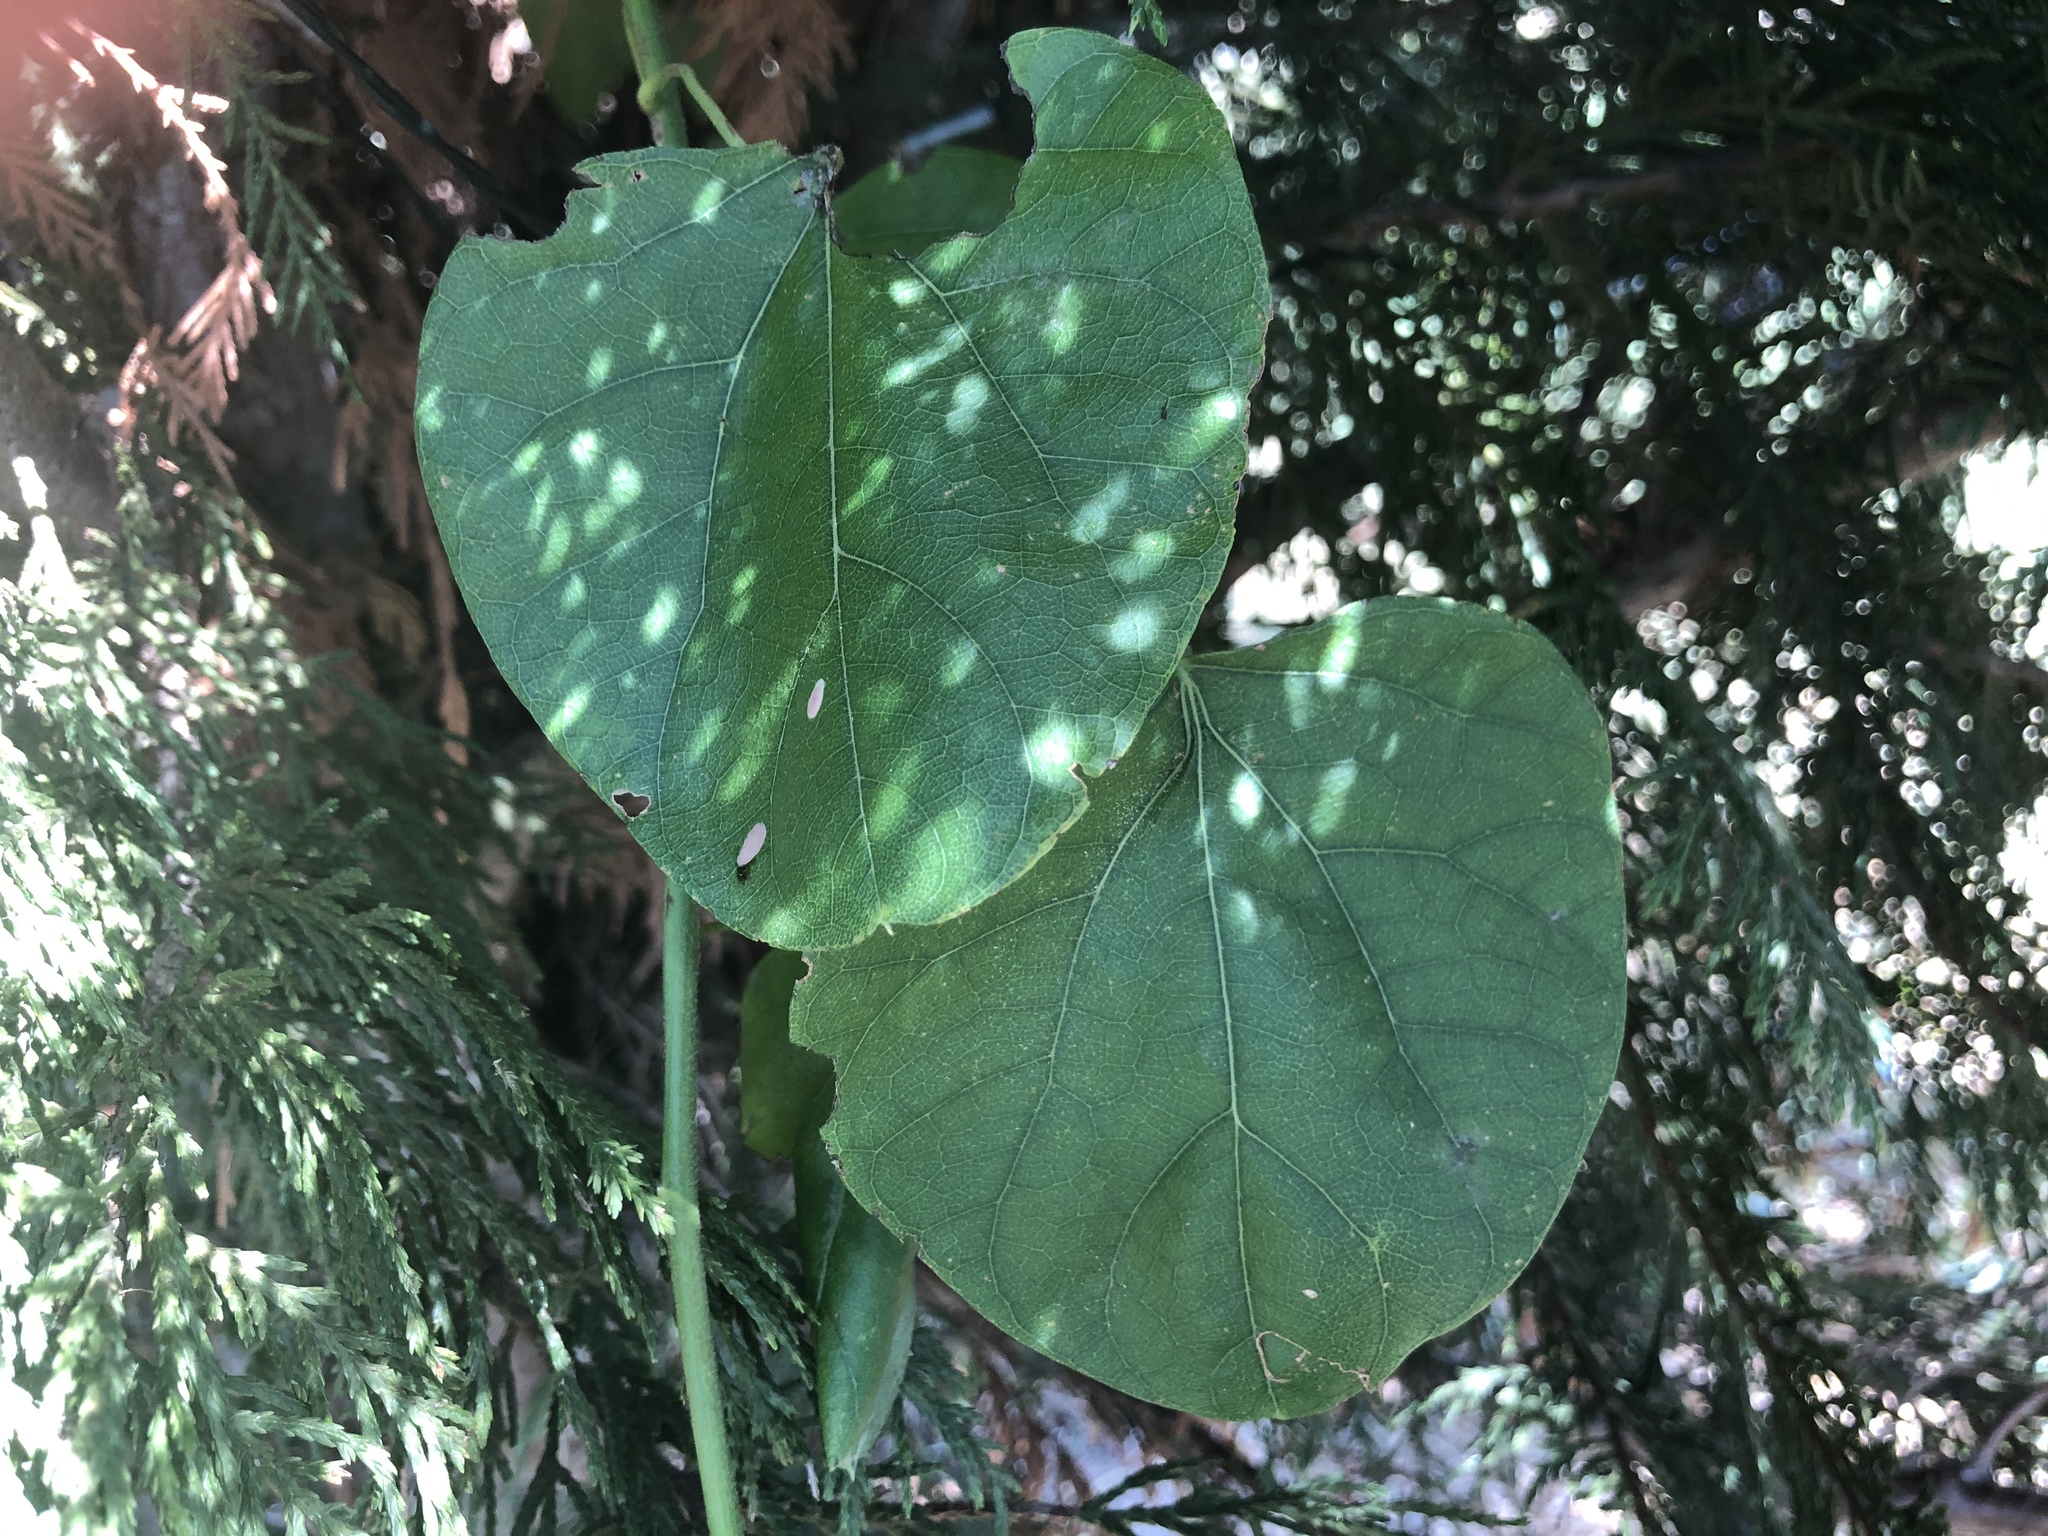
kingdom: Plantae
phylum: Tracheophyta
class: Magnoliopsida
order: Ranunculales
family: Menispermaceae
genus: Cocculus
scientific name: Cocculus carolinus
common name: Carolina moonseed
